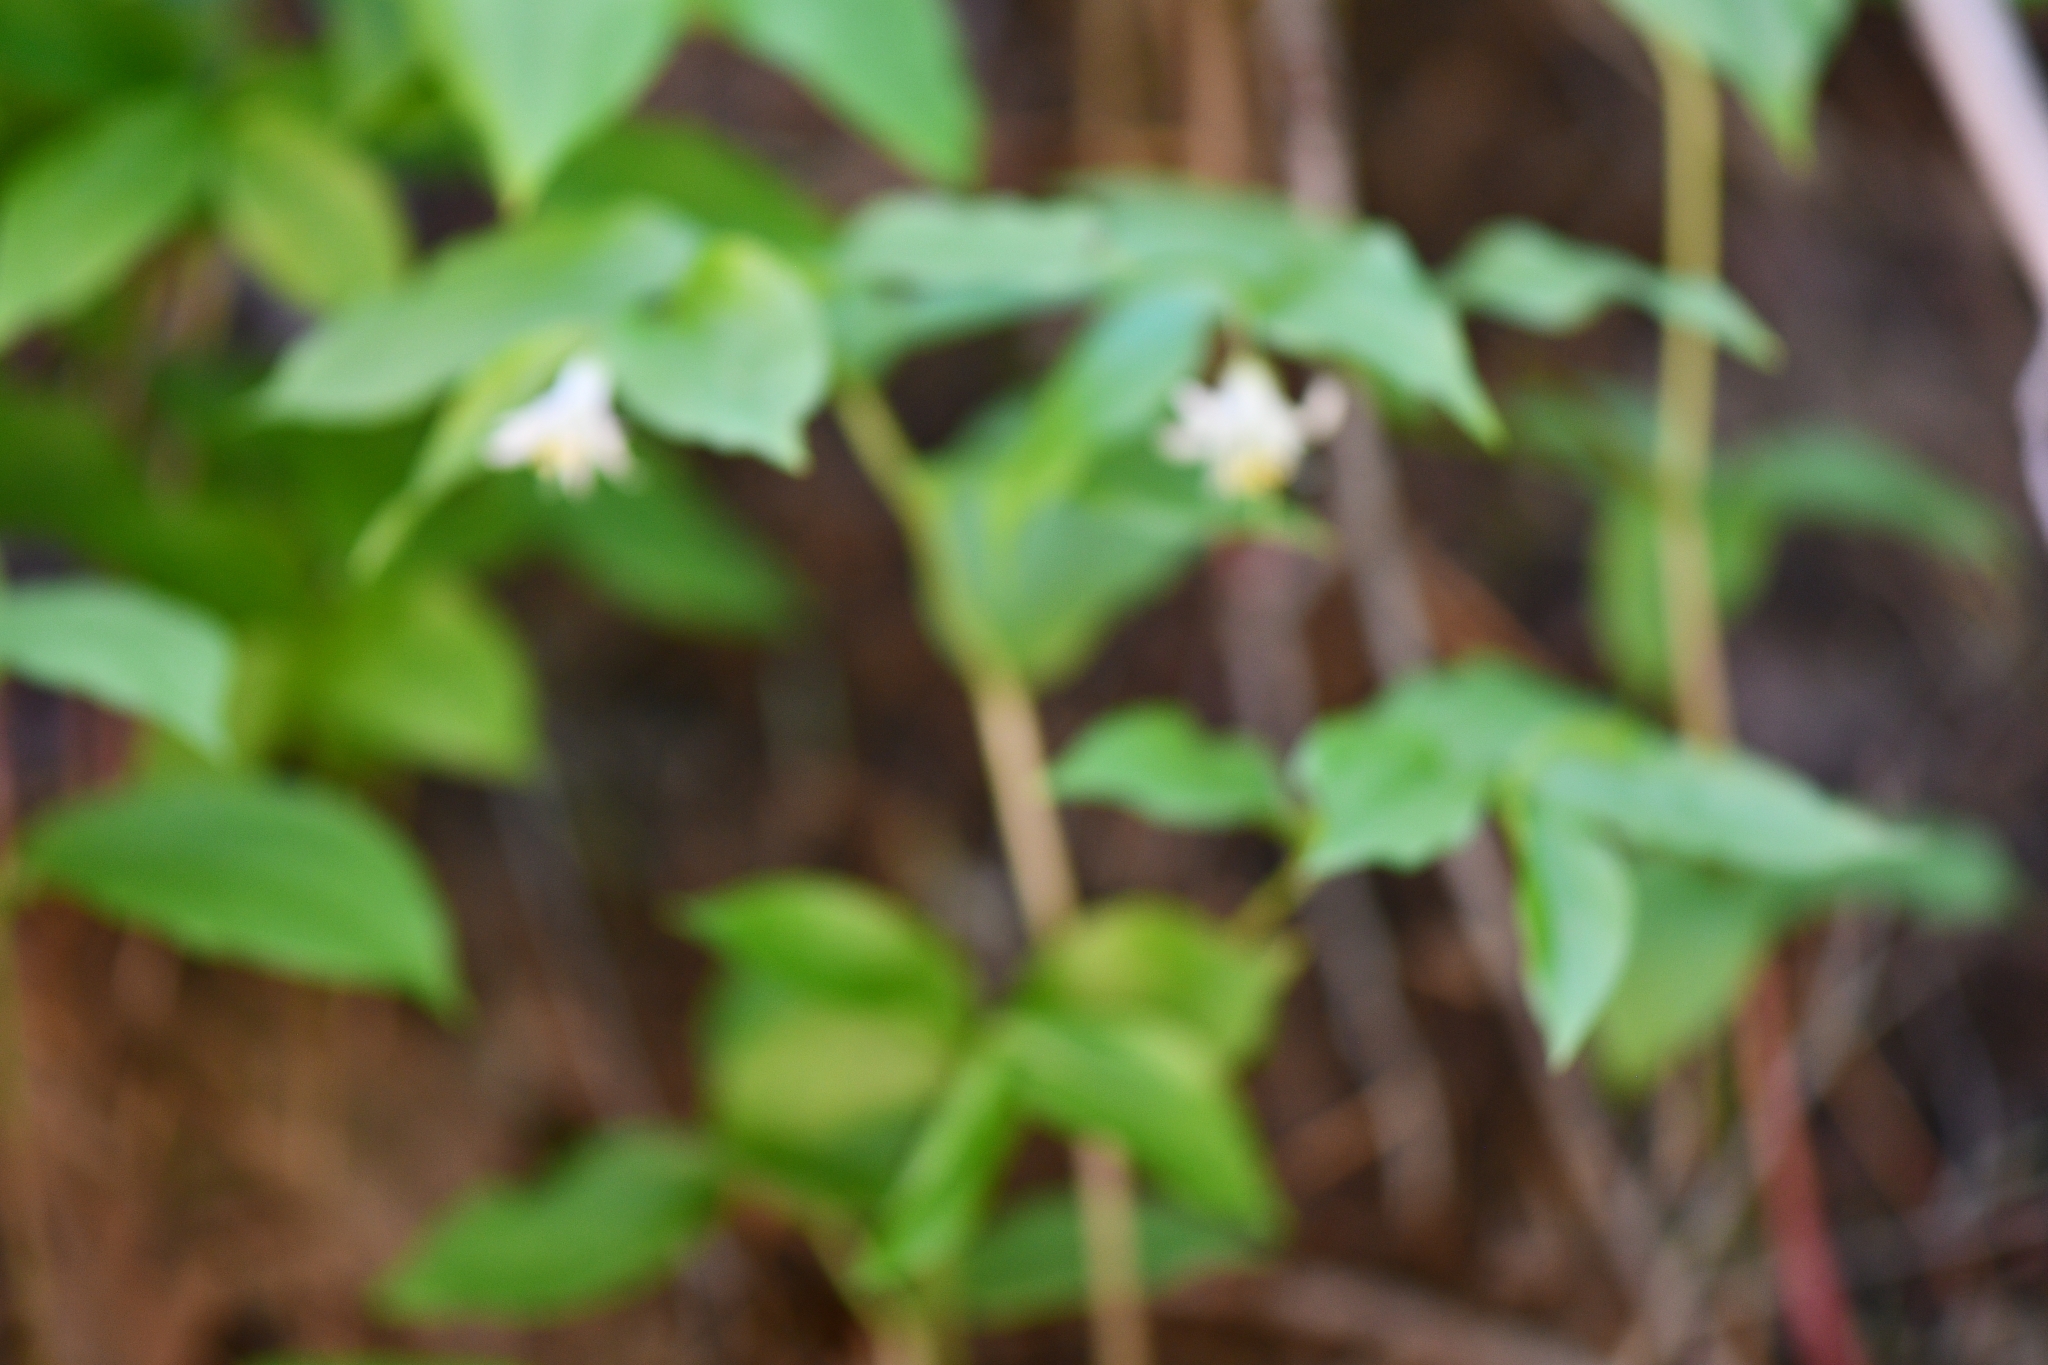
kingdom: Plantae
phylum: Tracheophyta
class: Liliopsida
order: Liliales
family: Liliaceae
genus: Prosartes
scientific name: Prosartes trachycarpa
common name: Rough-fruit fairy-bells
